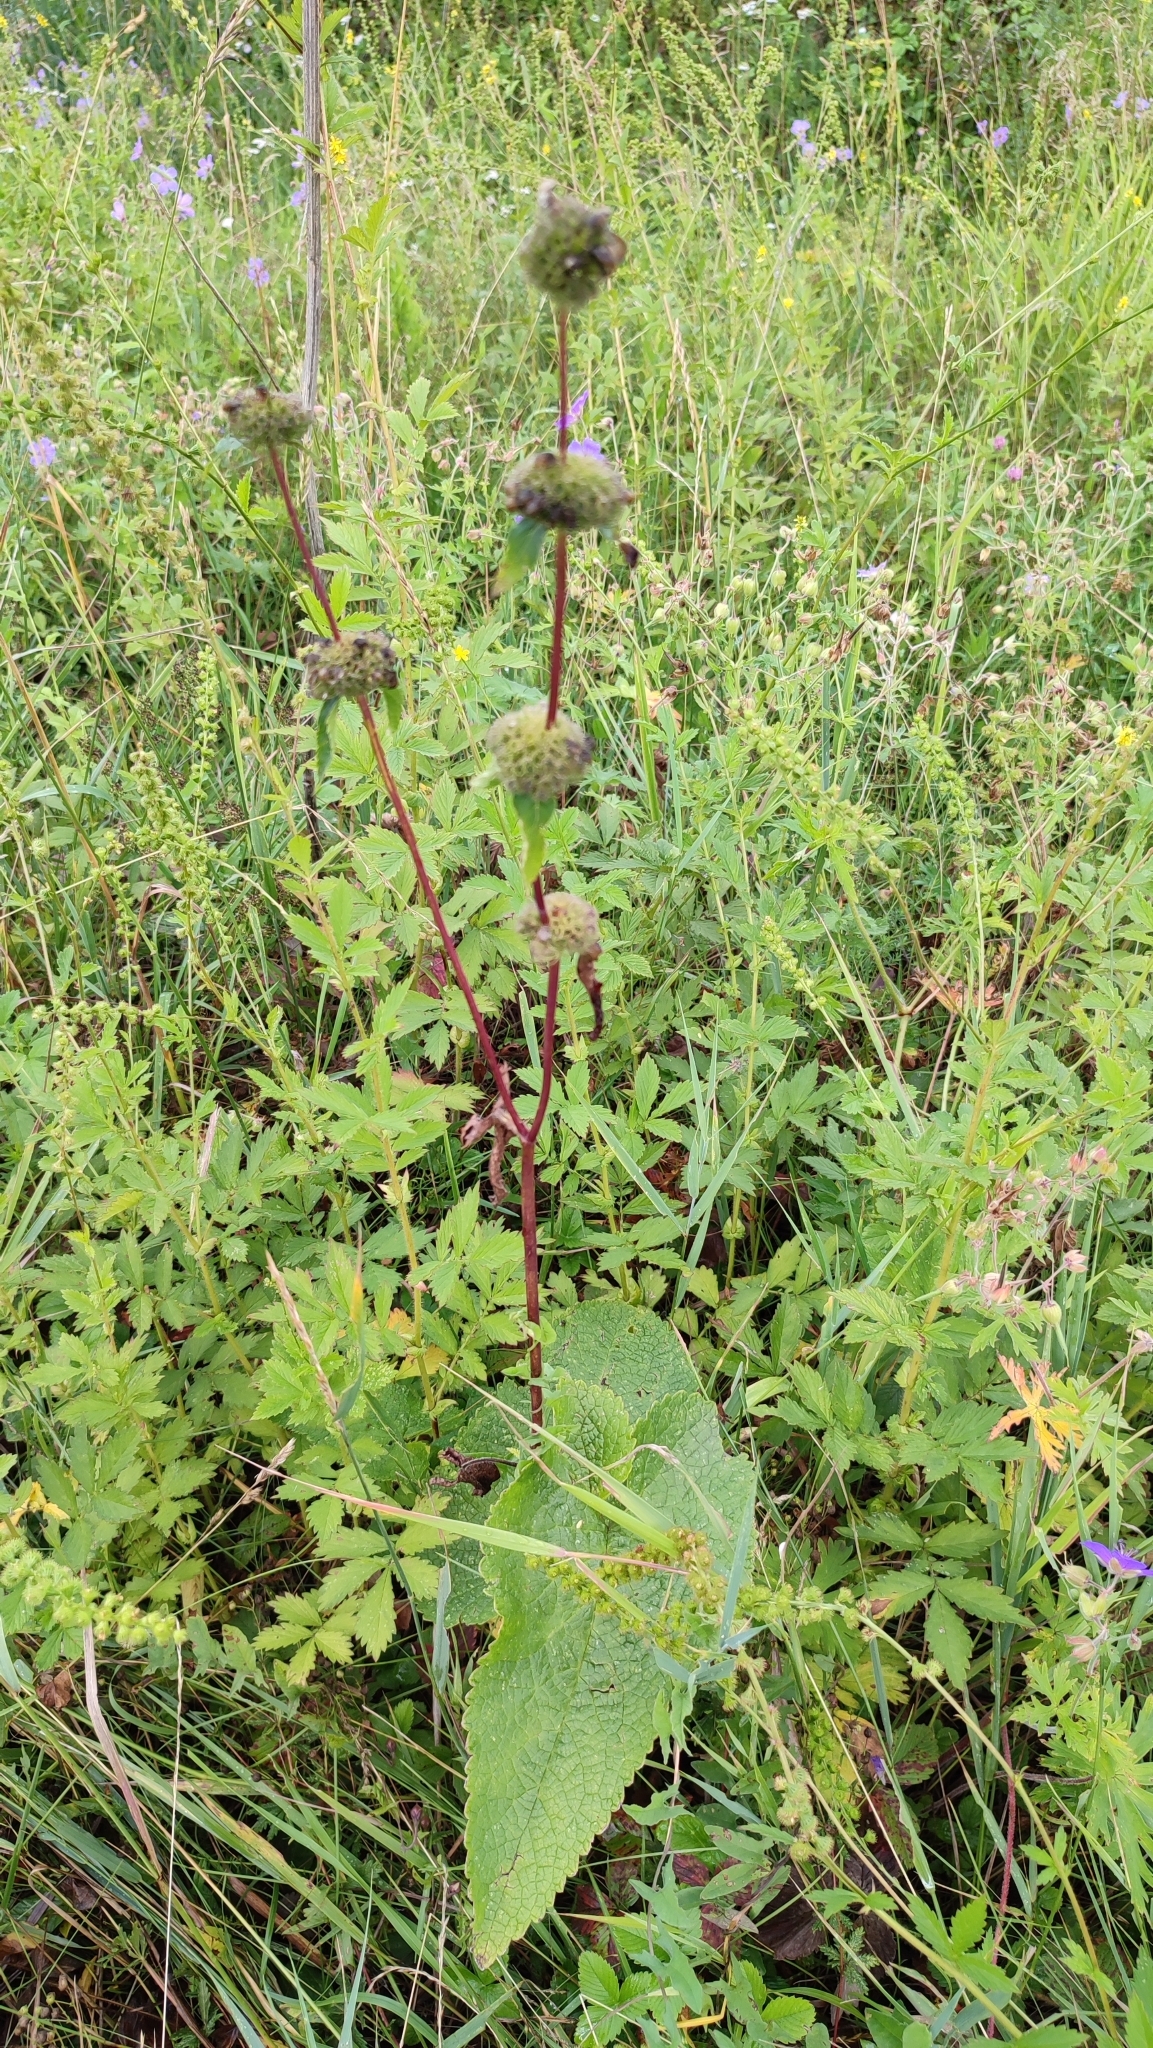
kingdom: Plantae
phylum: Tracheophyta
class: Magnoliopsida
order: Lamiales
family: Lamiaceae
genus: Phlomoides
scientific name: Phlomoides tuberosa
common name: Tuberous jerusalem sage
